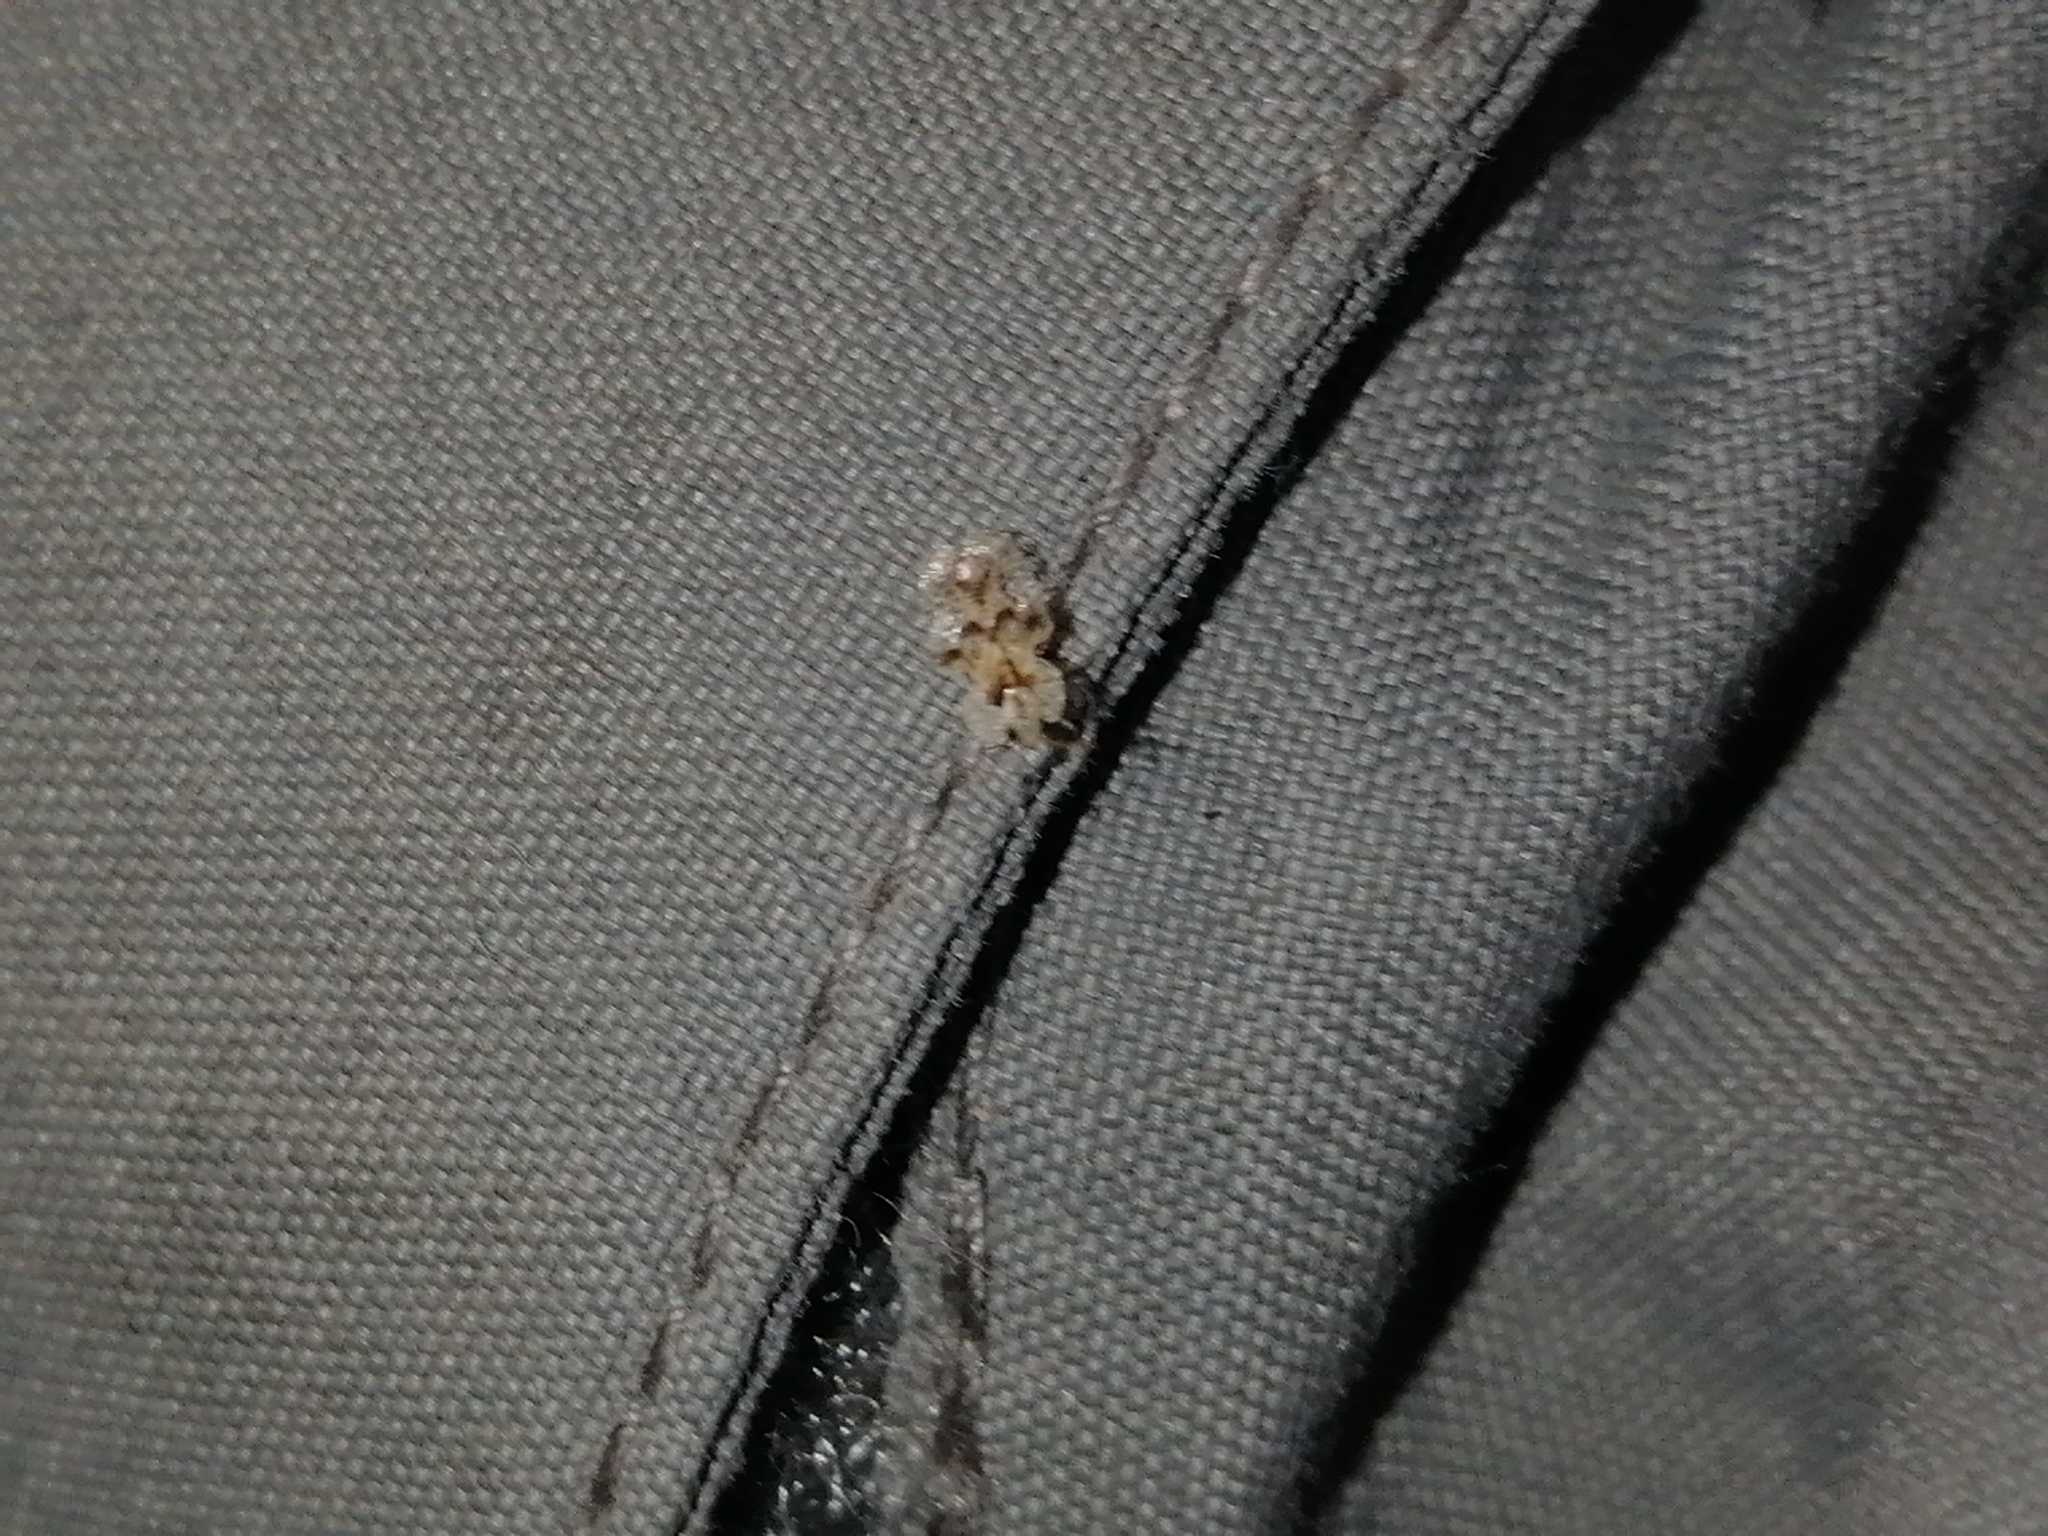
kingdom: Animalia
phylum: Arthropoda
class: Insecta
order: Hemiptera
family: Tingidae
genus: Corythucha
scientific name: Corythucha arcuata
